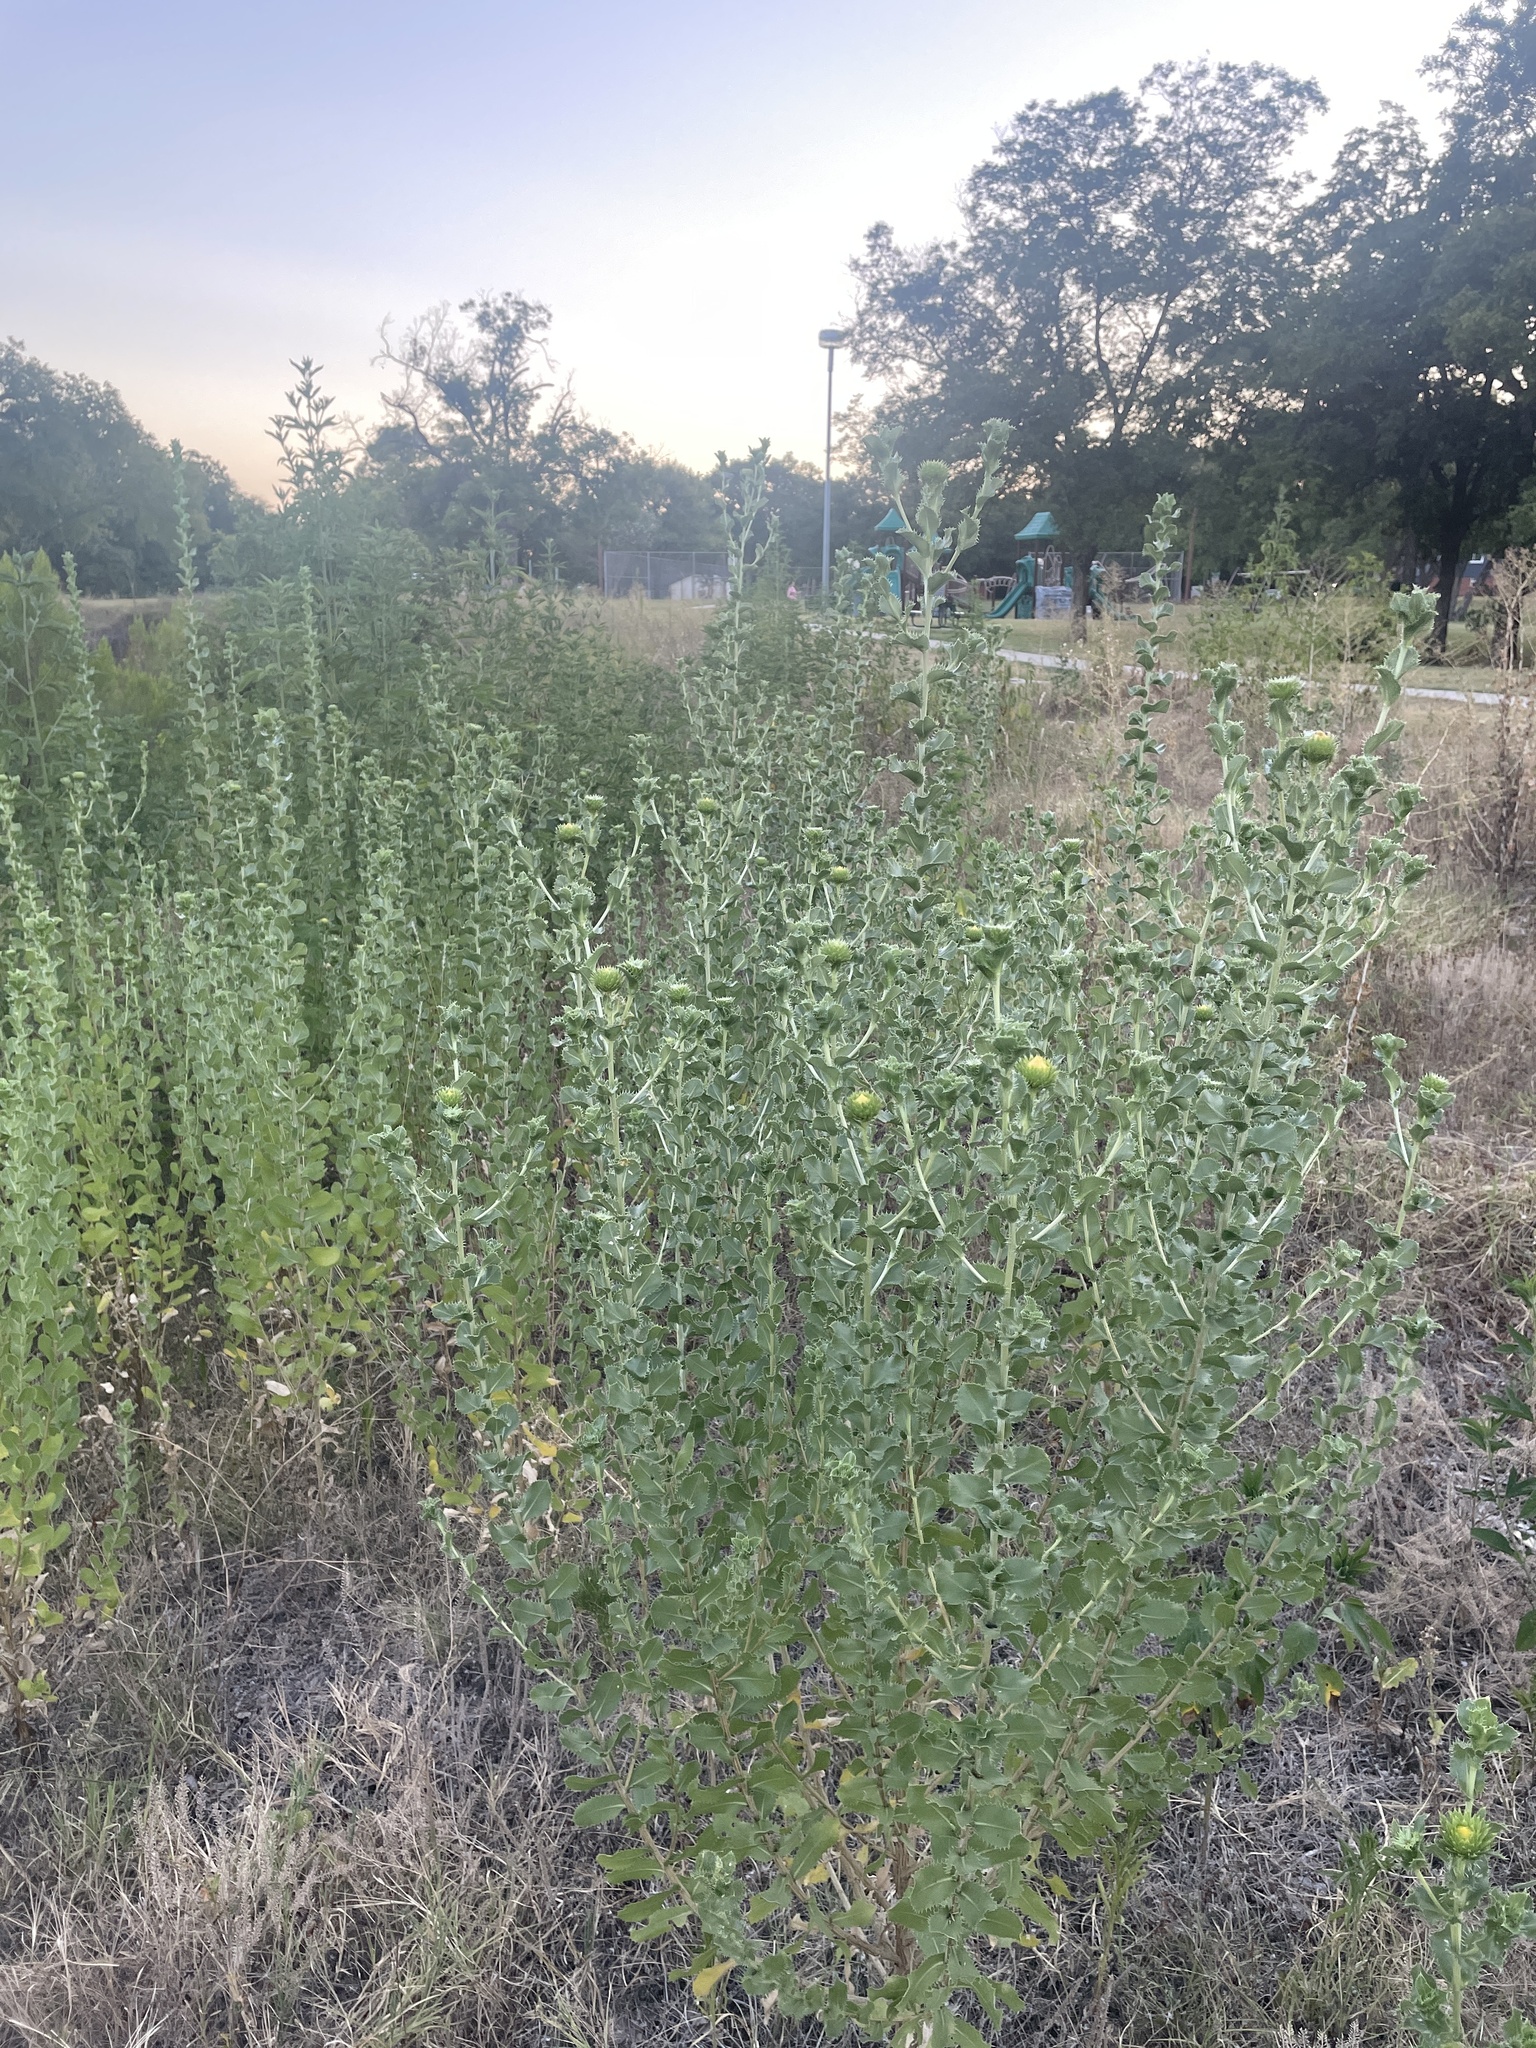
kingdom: Plantae
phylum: Tracheophyta
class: Magnoliopsida
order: Asterales
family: Asteraceae
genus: Grindelia
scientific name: Grindelia ciliata
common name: Goldenweed
